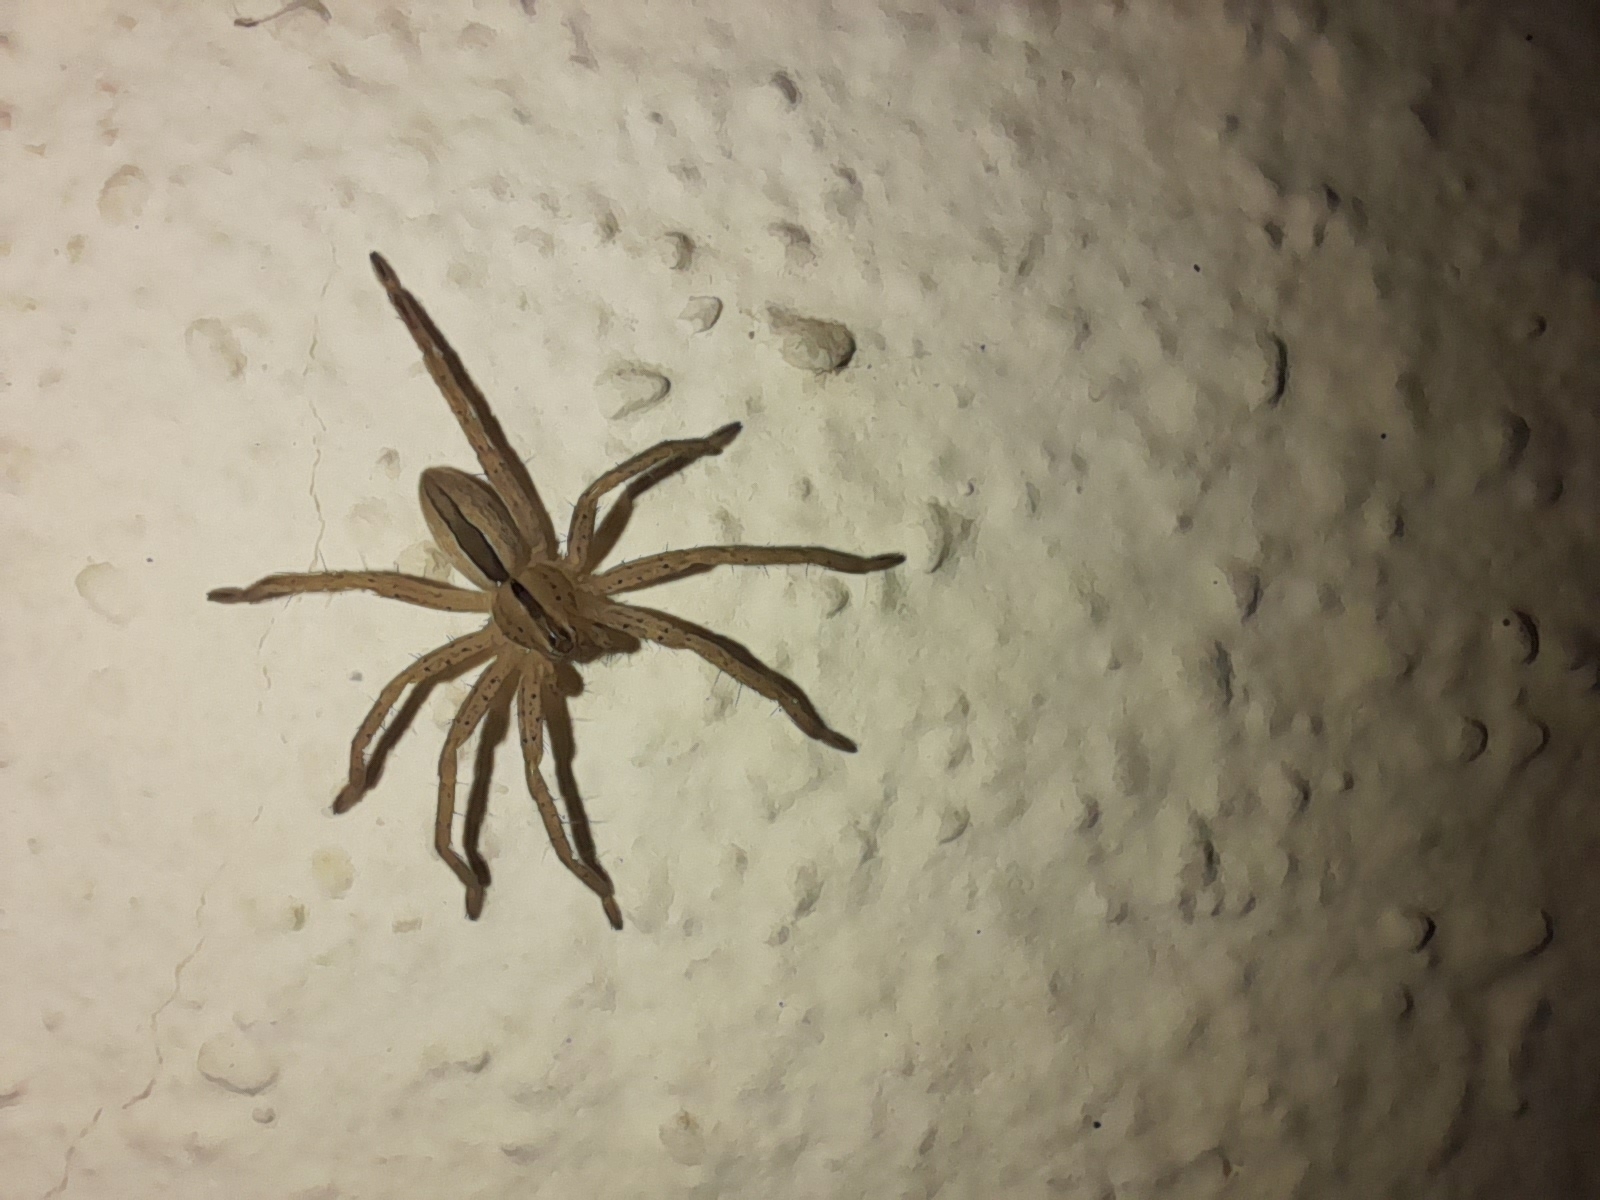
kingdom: Animalia
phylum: Arthropoda
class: Arachnida
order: Araneae
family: Sparassidae
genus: Micrommata
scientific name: Micrommata ligurina
